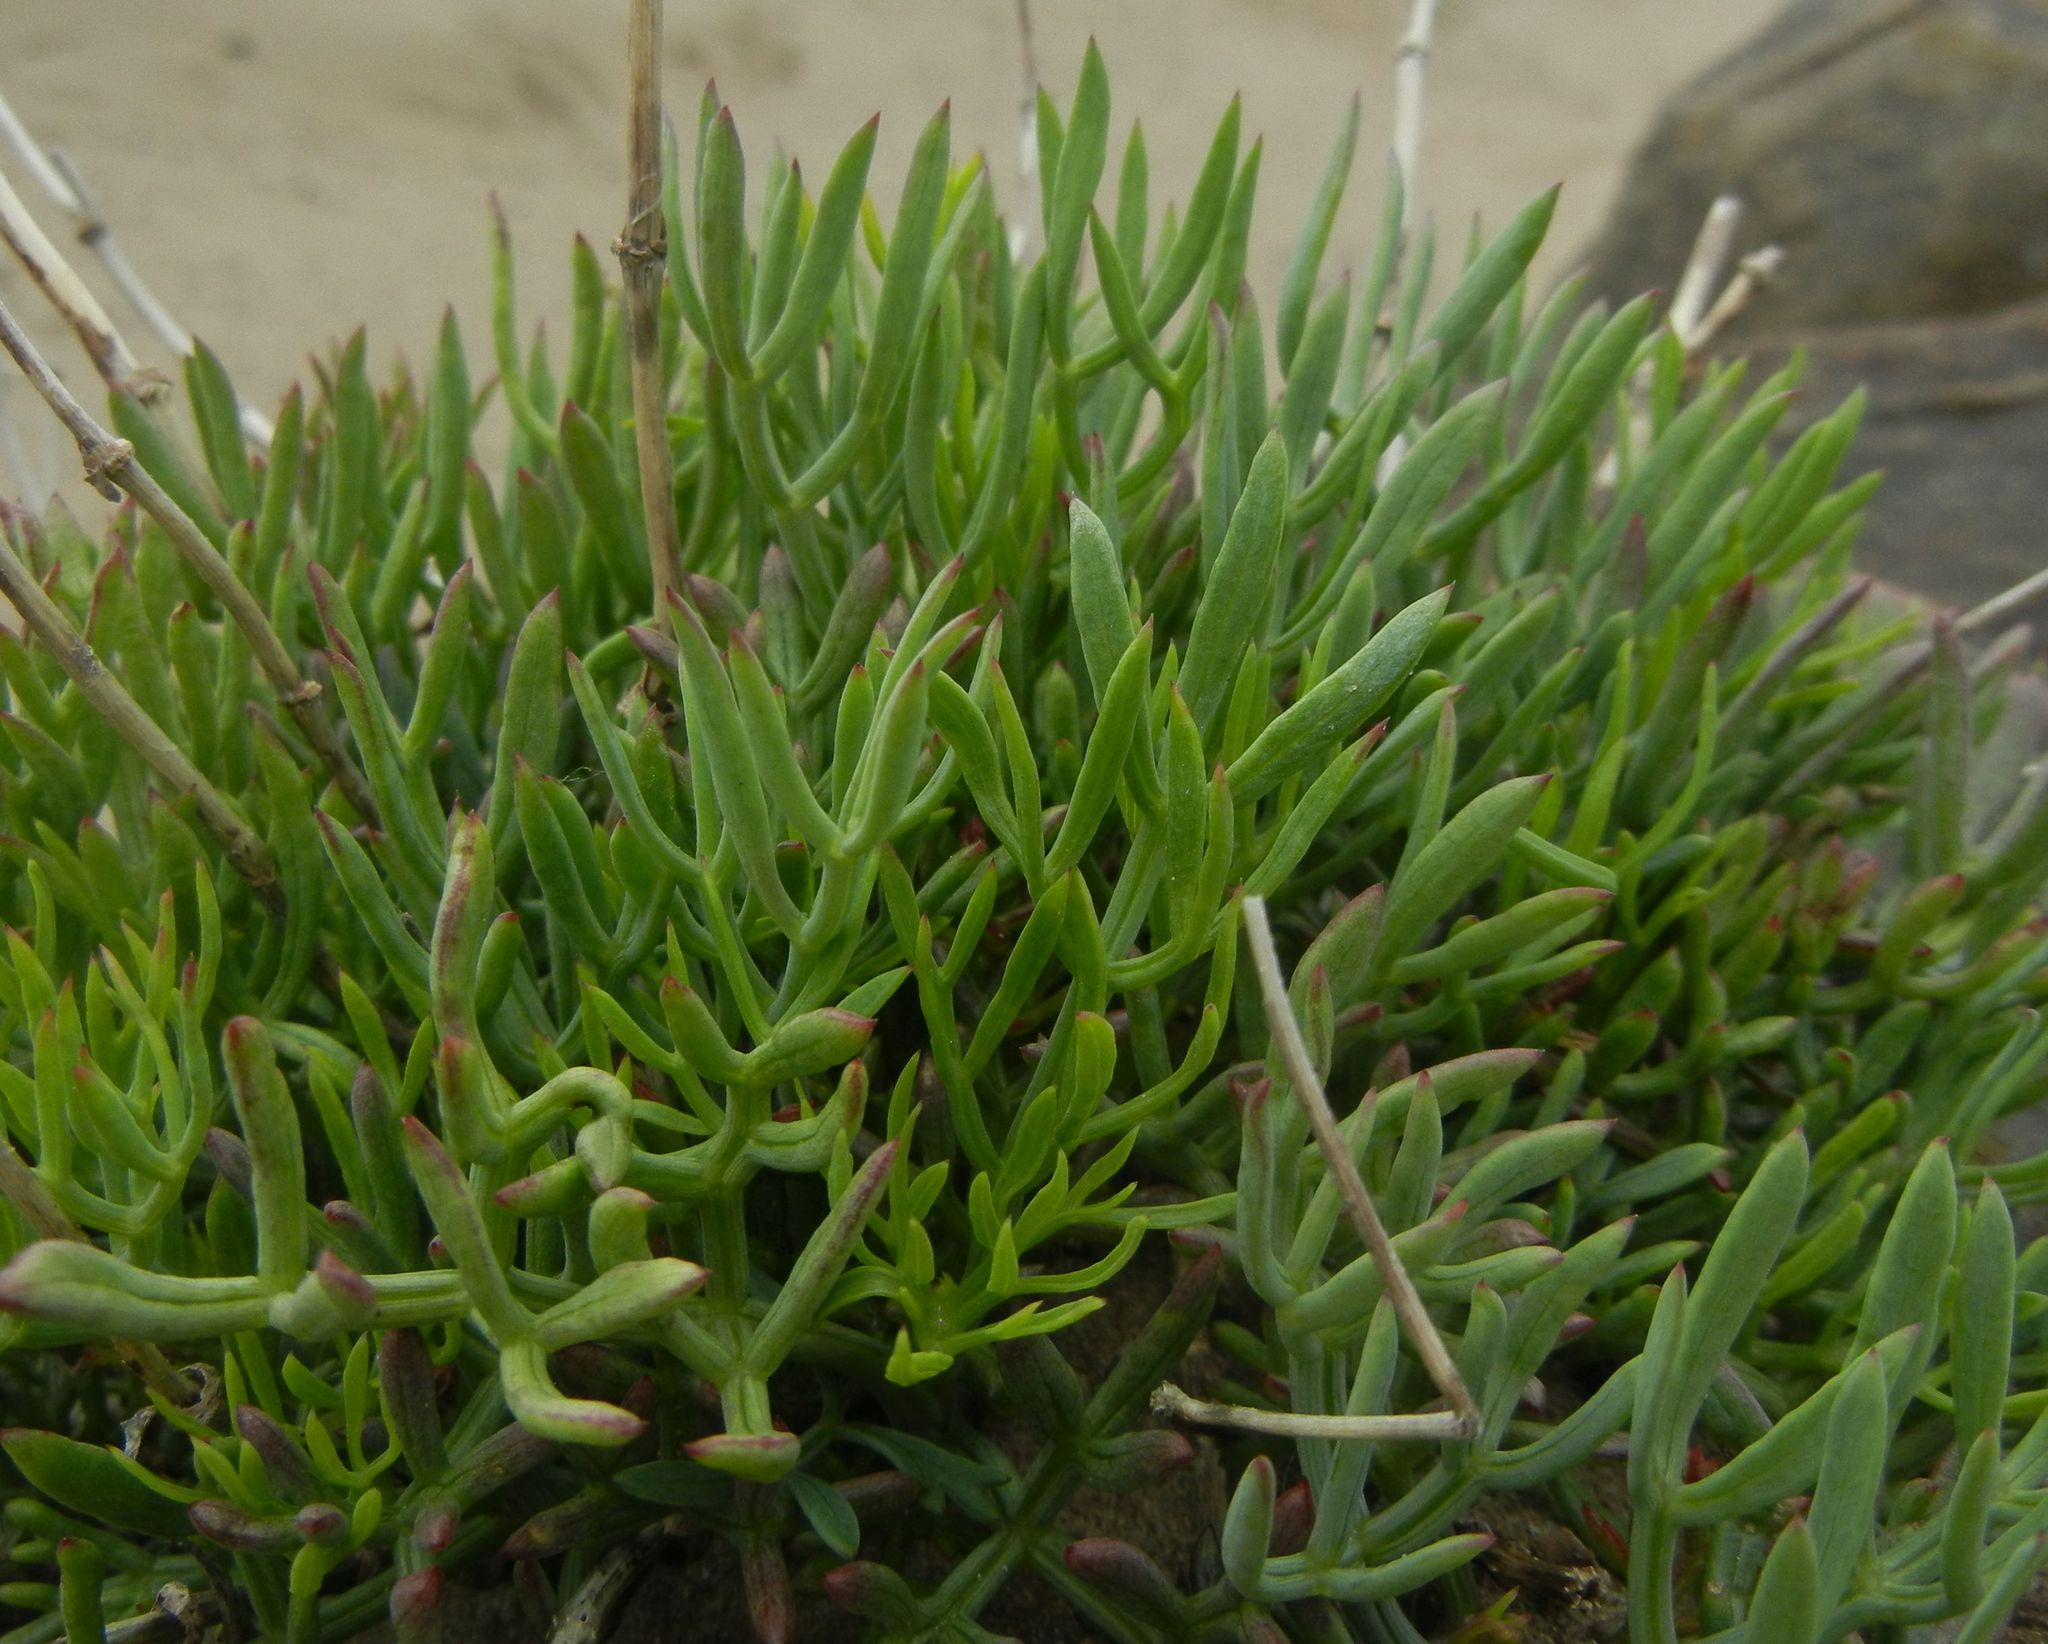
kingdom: Plantae
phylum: Tracheophyta
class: Magnoliopsida
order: Apiales
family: Apiaceae
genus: Crithmum
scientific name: Crithmum maritimum
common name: Rock samphire
